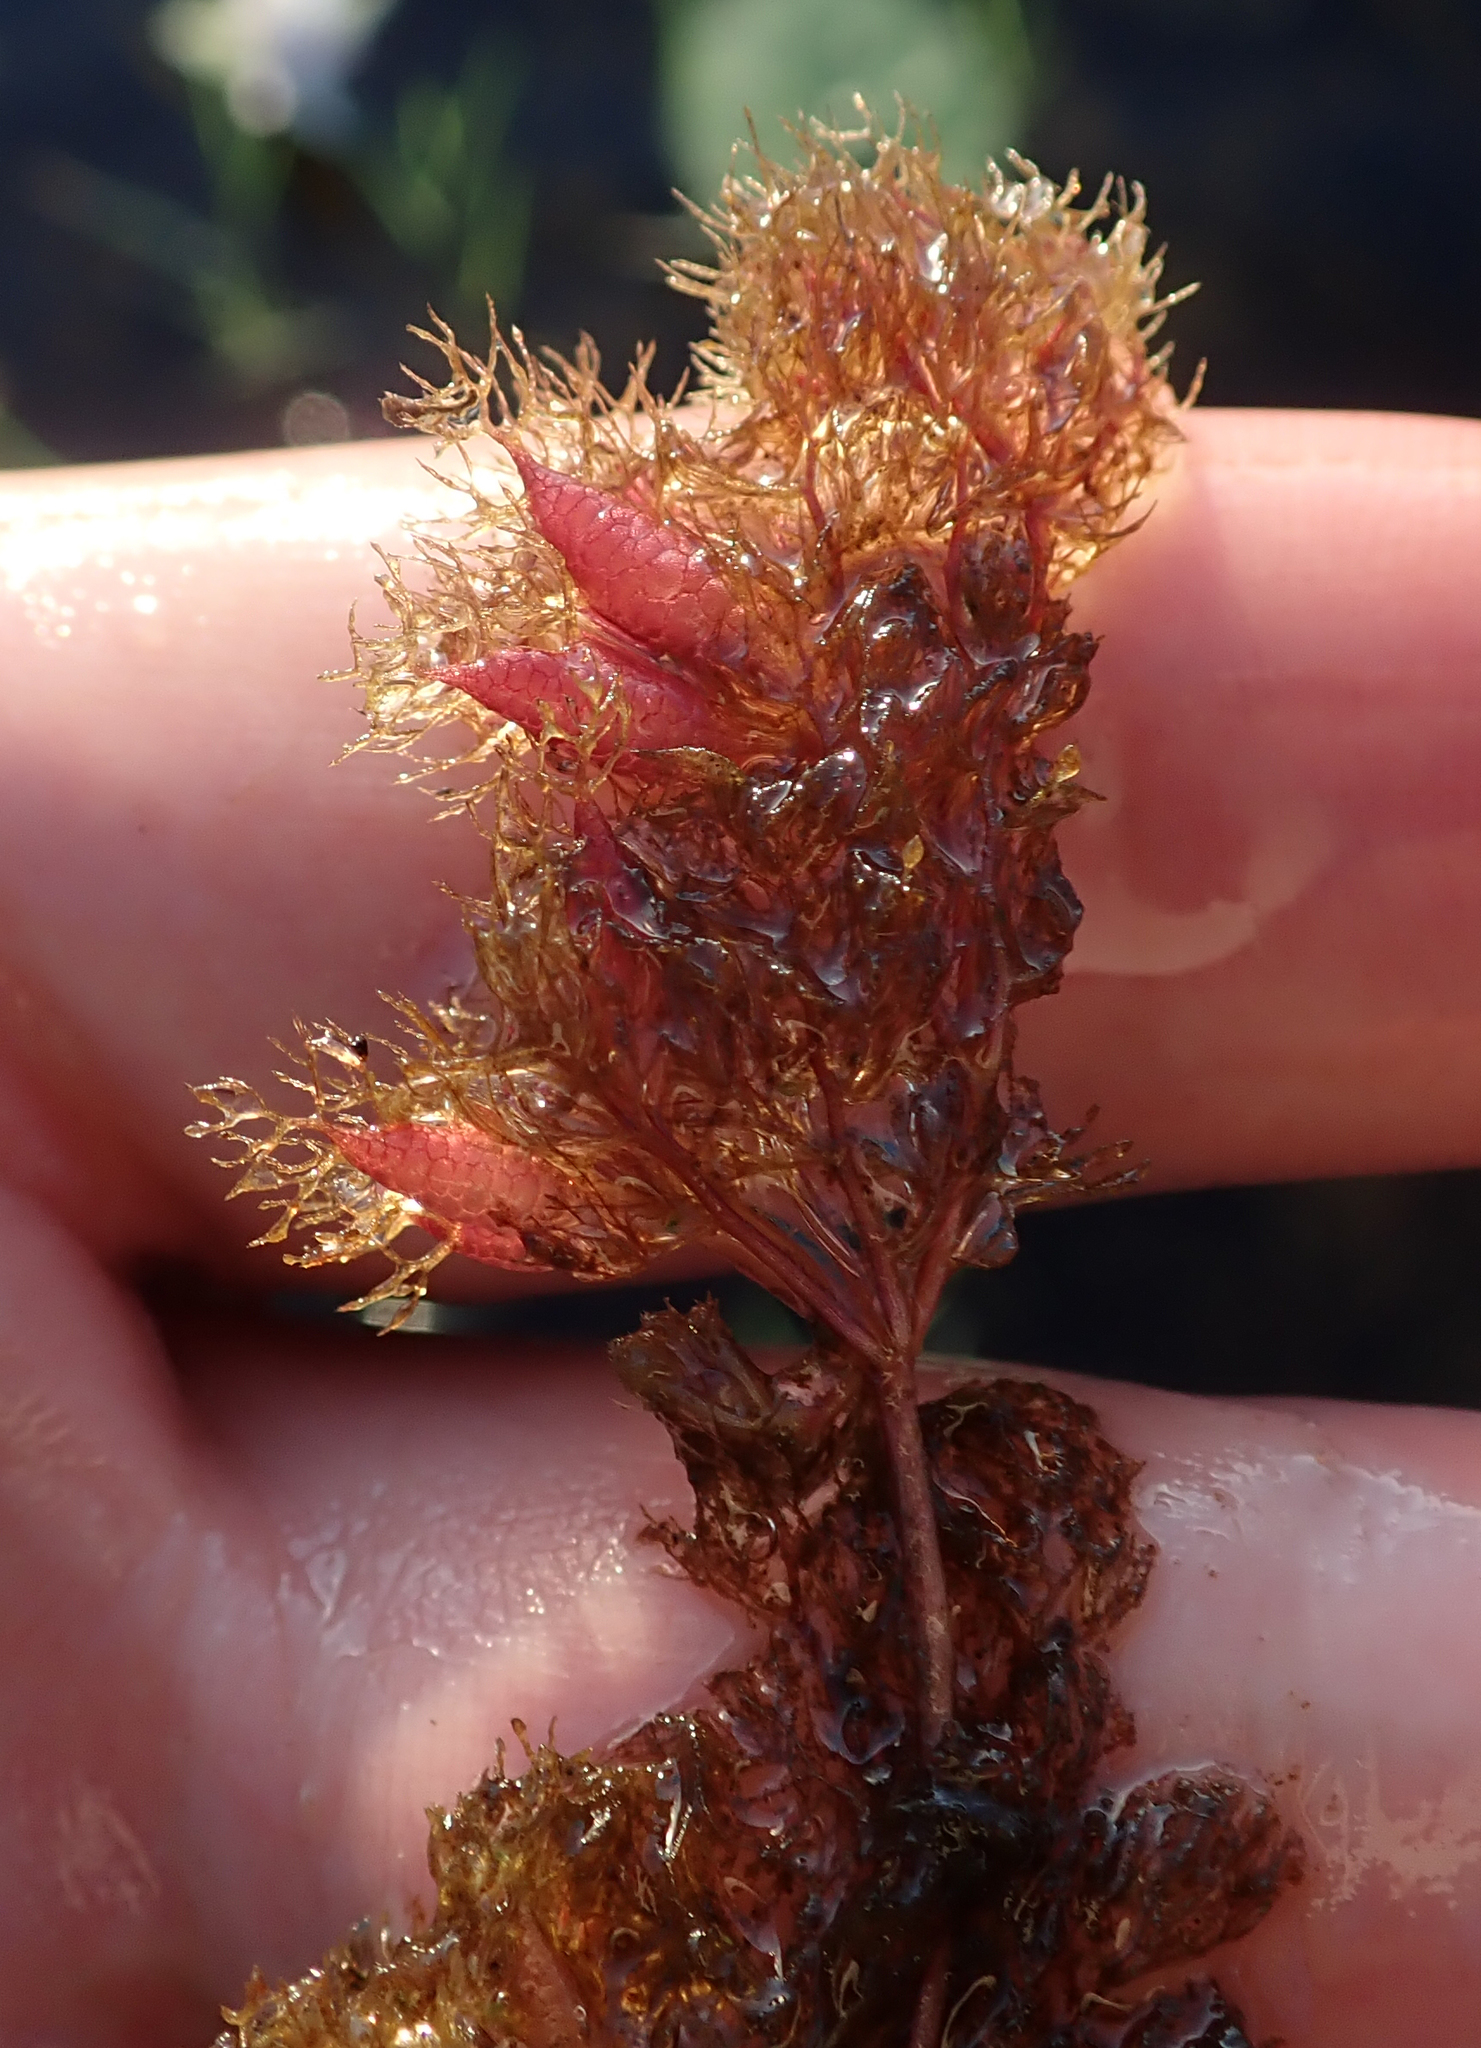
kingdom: Plantae
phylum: Tracheophyta
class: Magnoliopsida
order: Lamiales
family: Lentibulariaceae
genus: Utricularia
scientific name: Utricularia benjaminiana
